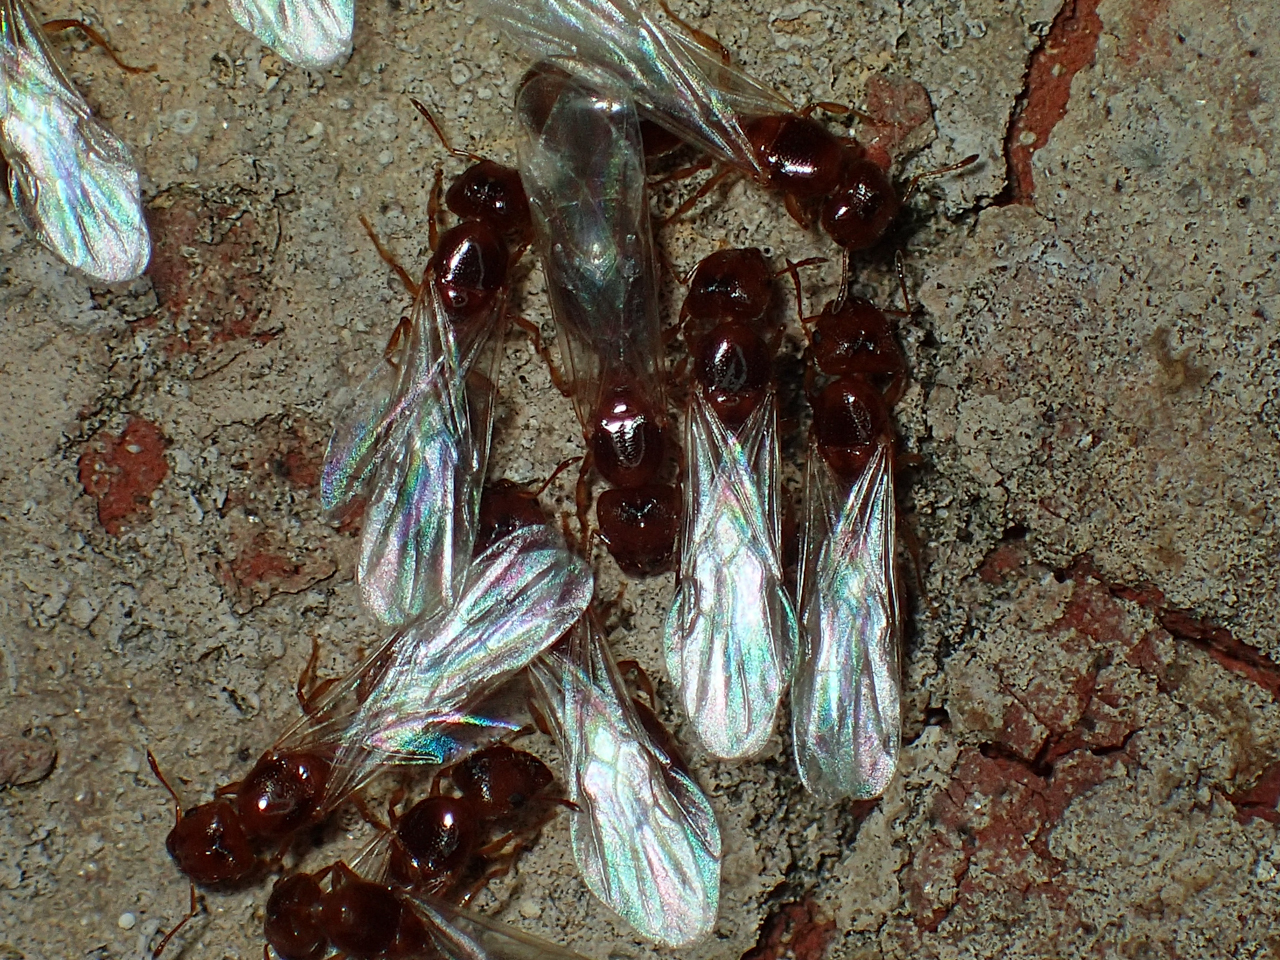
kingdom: Animalia
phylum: Arthropoda
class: Insecta
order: Hymenoptera
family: Formicidae
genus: Pheidole
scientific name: Pheidole bicarinata
